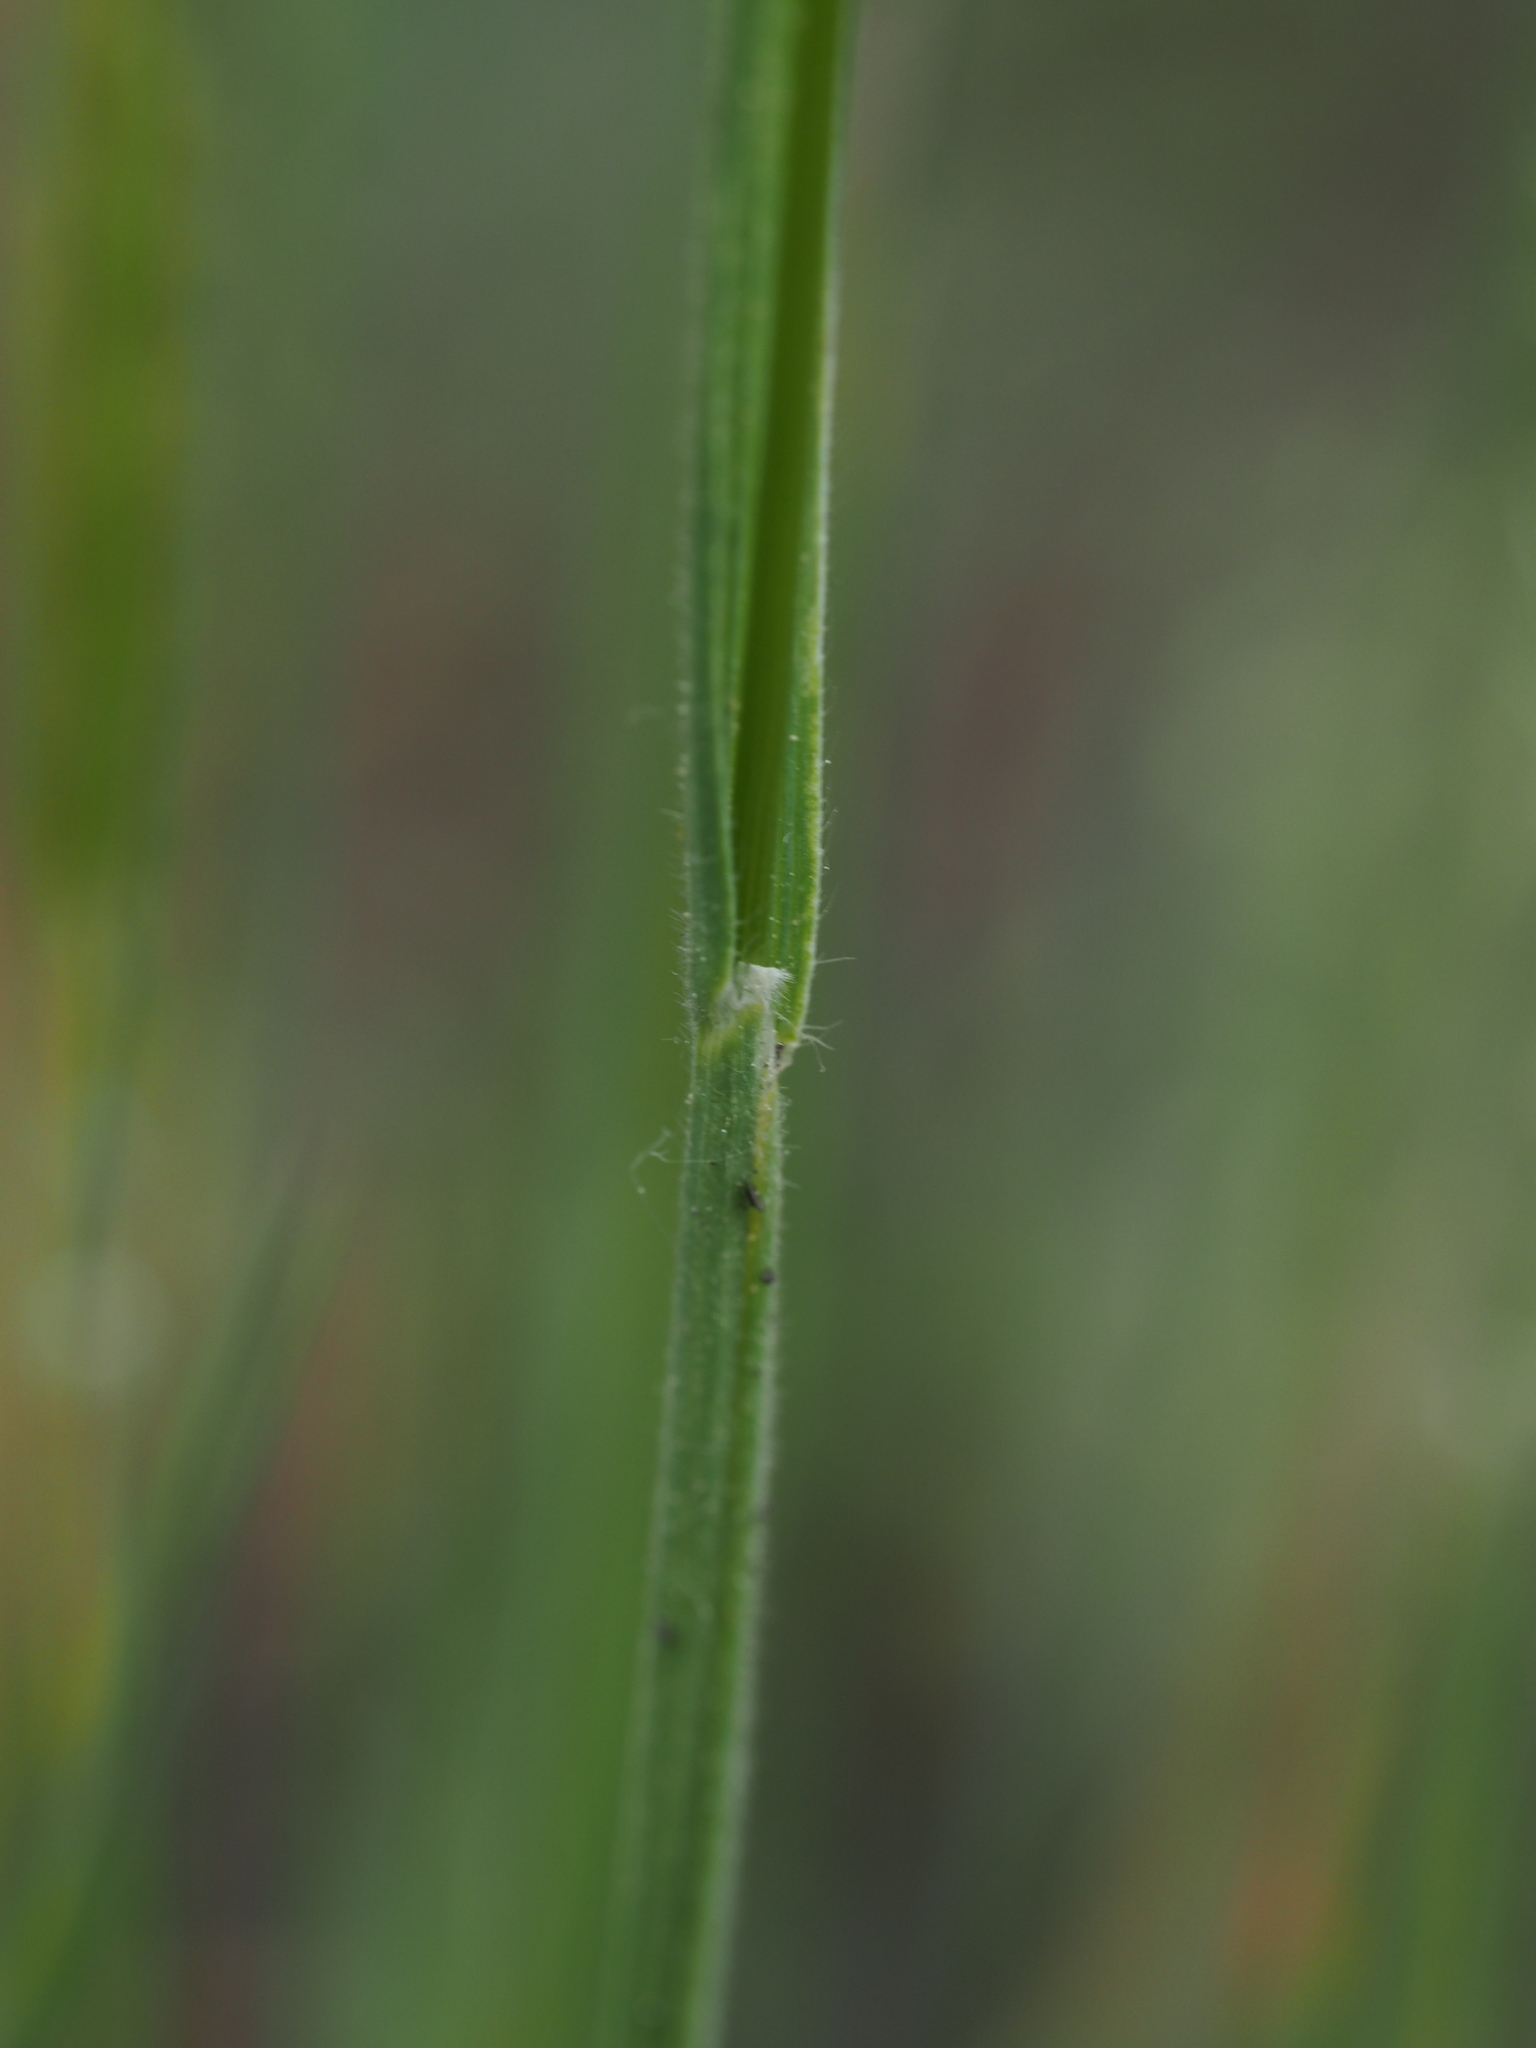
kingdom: Plantae
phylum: Tracheophyta
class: Liliopsida
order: Poales
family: Poaceae
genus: Koeleria
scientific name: Koeleria macrantha
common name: Crested hair-grass
